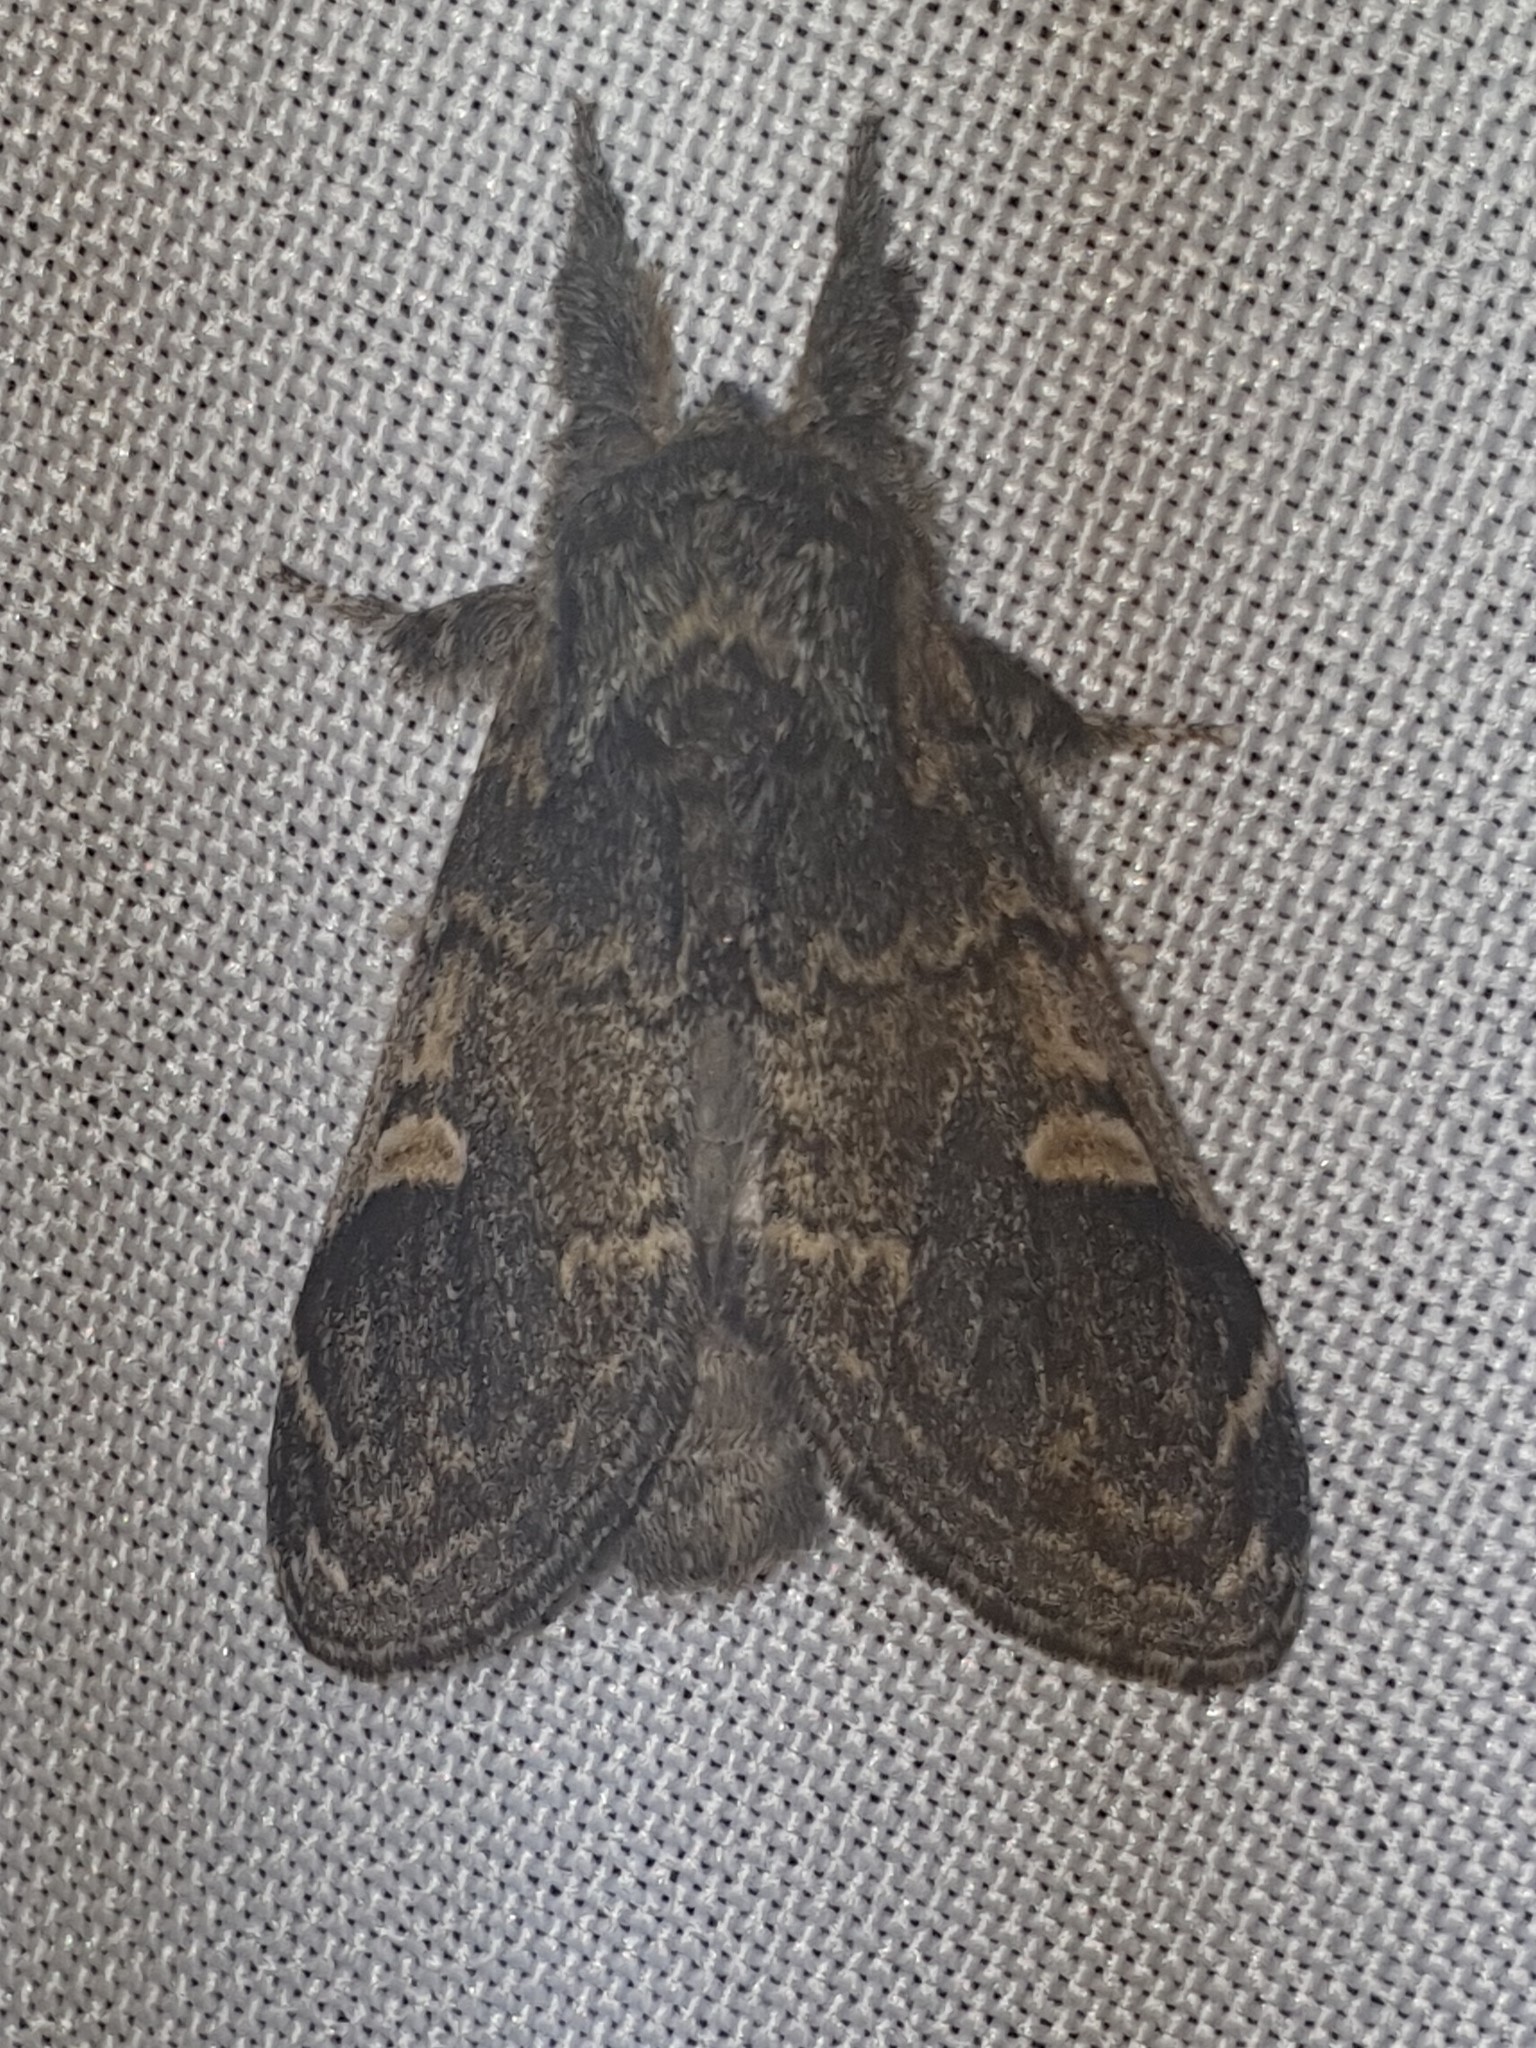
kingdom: Animalia
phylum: Arthropoda
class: Insecta
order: Lepidoptera
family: Notodontidae
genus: Notodonta
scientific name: Notodonta tritophus
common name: Three-humped prominent
